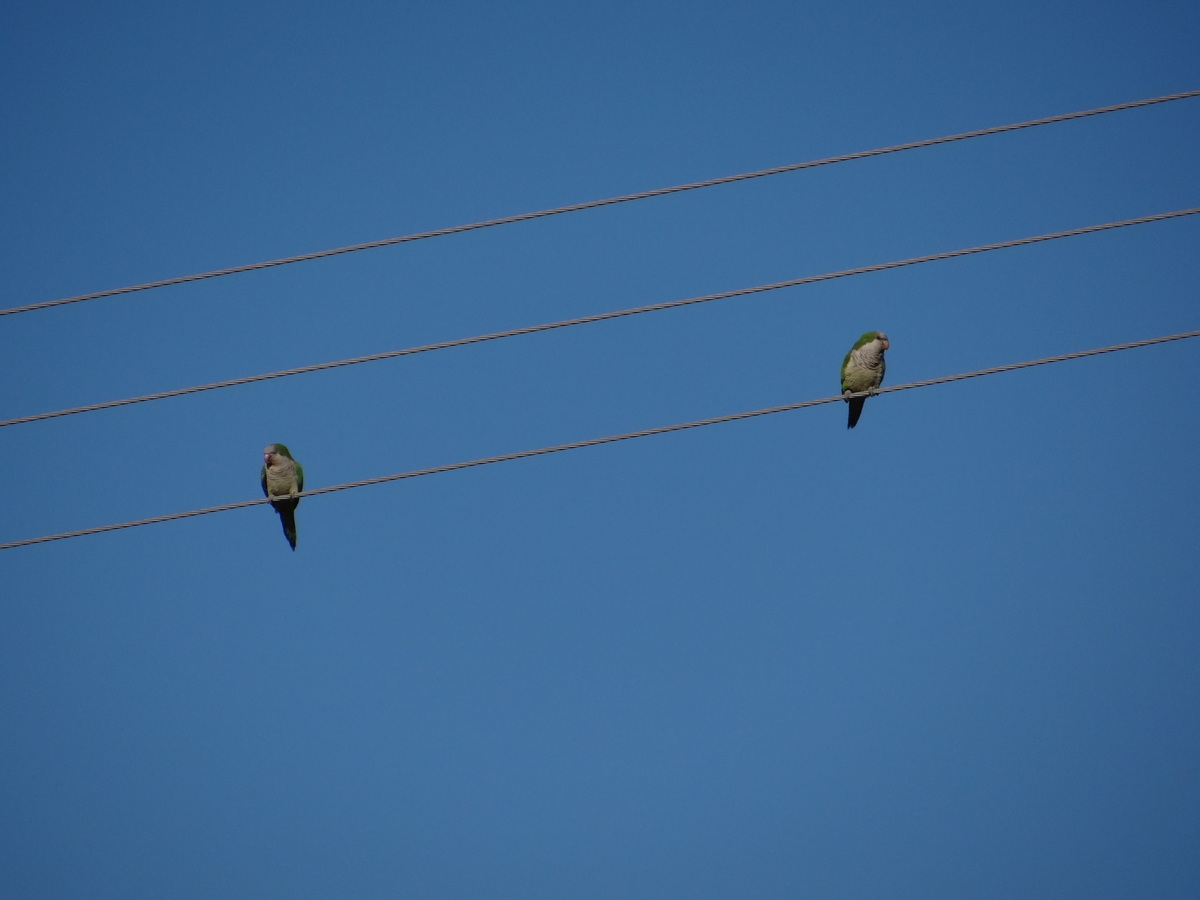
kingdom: Animalia
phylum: Chordata
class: Aves
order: Psittaciformes
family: Psittacidae
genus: Myiopsitta
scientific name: Myiopsitta monachus
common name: Monk parakeet
